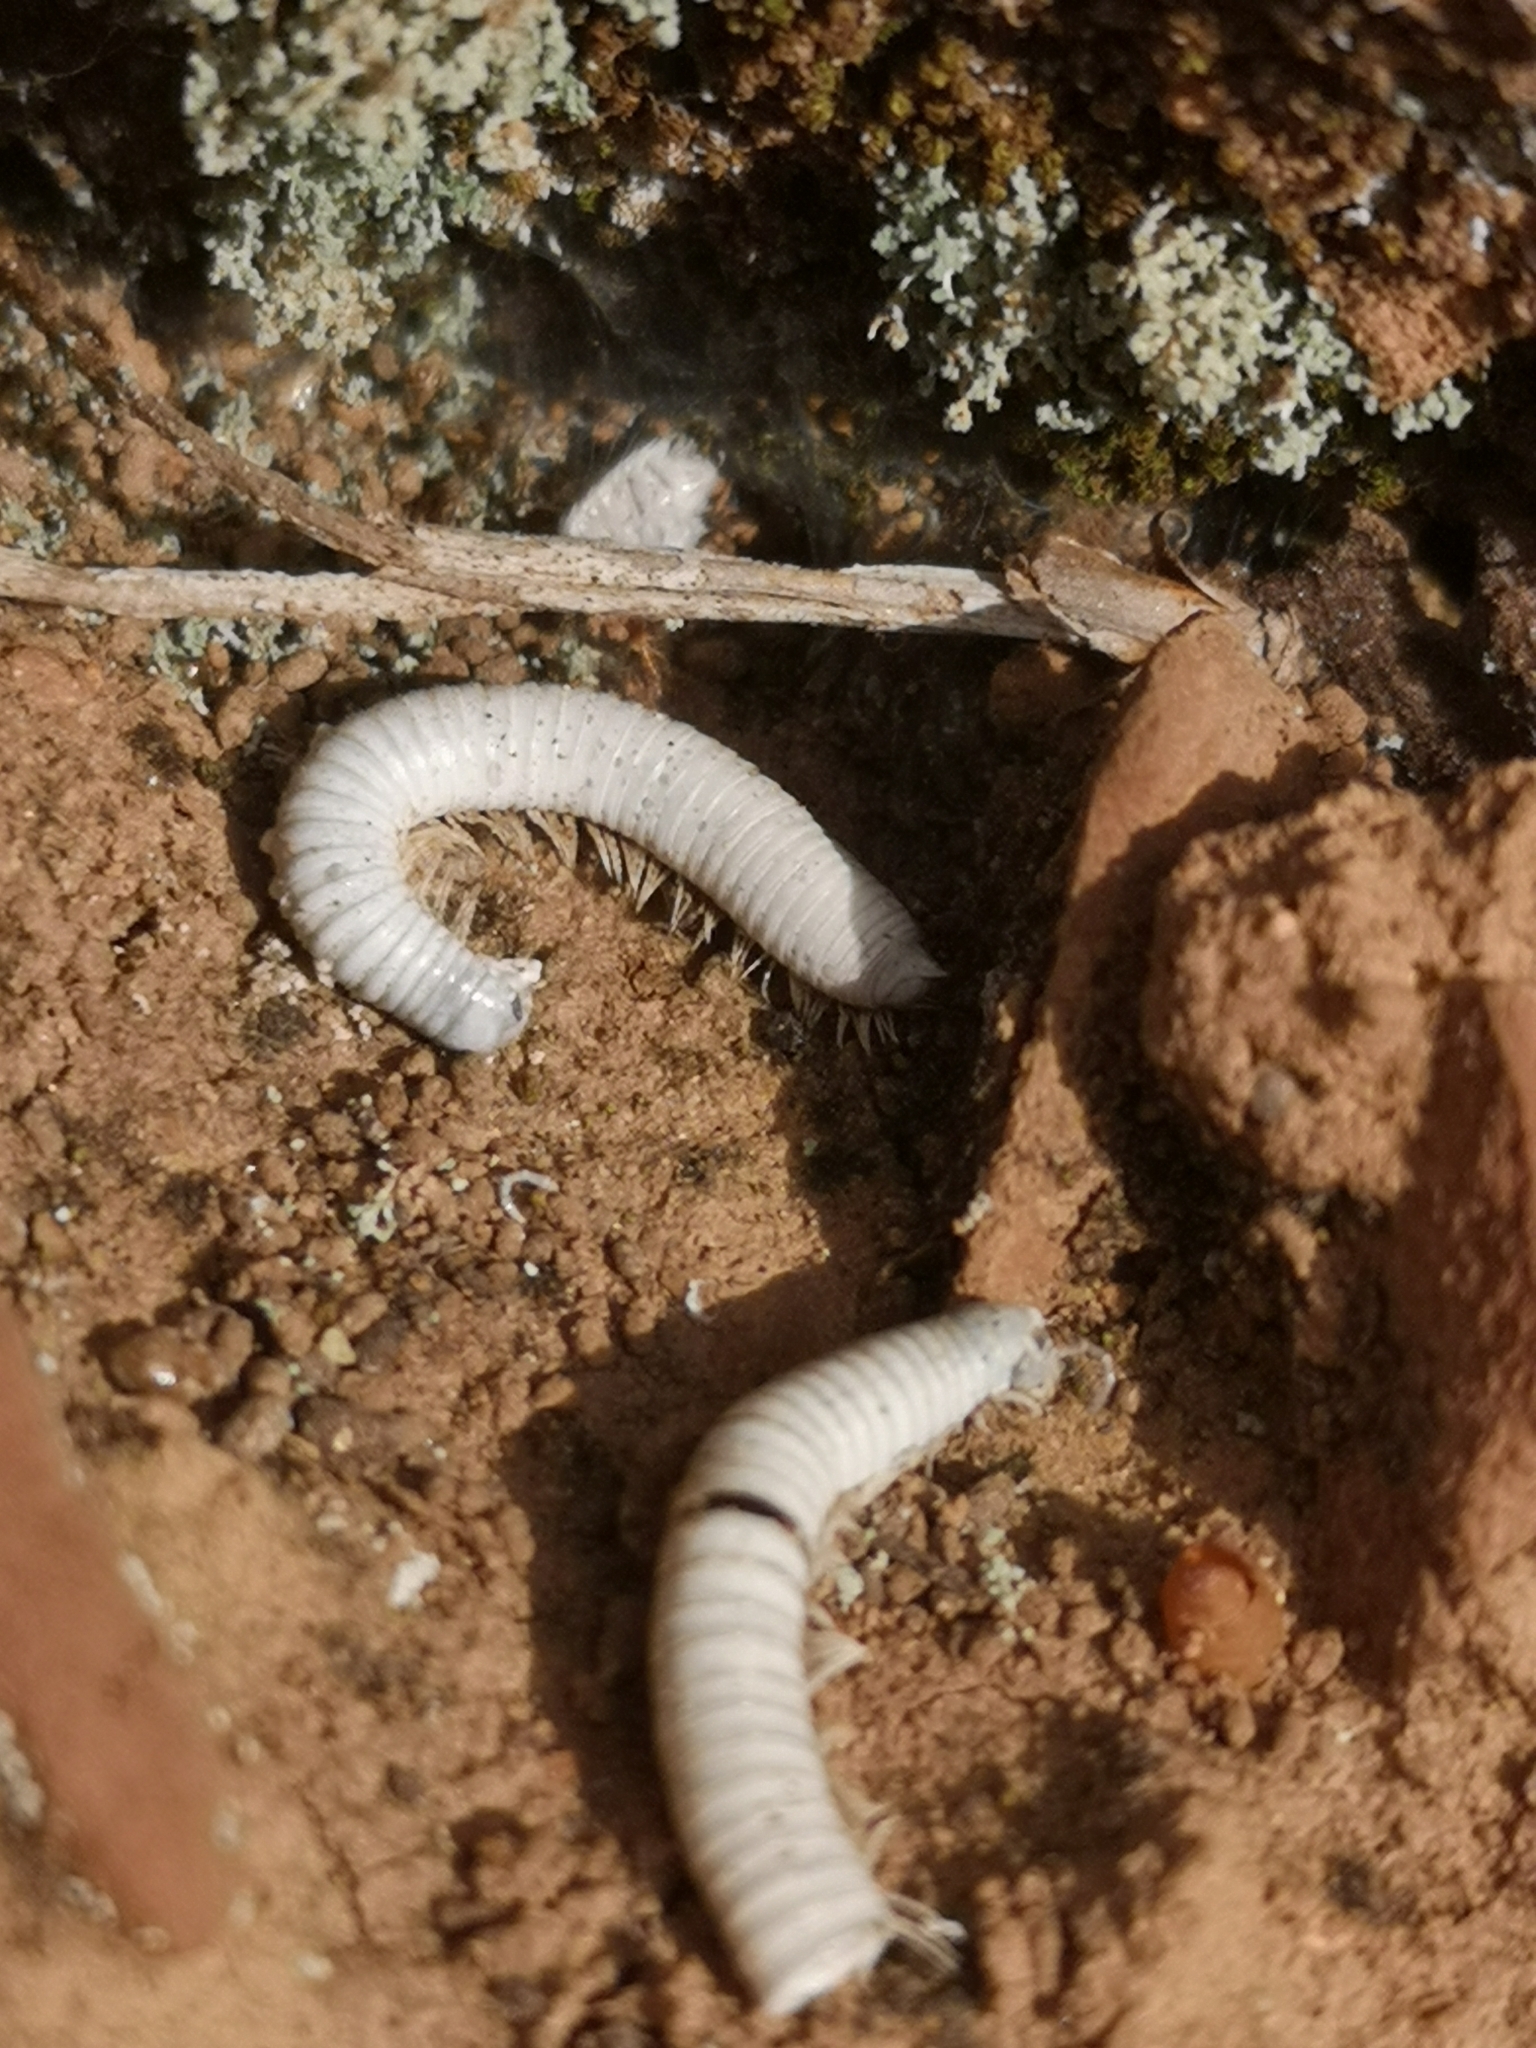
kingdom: Animalia
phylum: Arthropoda
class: Diplopoda
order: Julida
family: Julidae
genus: Ommatoiulus
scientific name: Ommatoiulus moreleti
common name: Portuguese millipede
